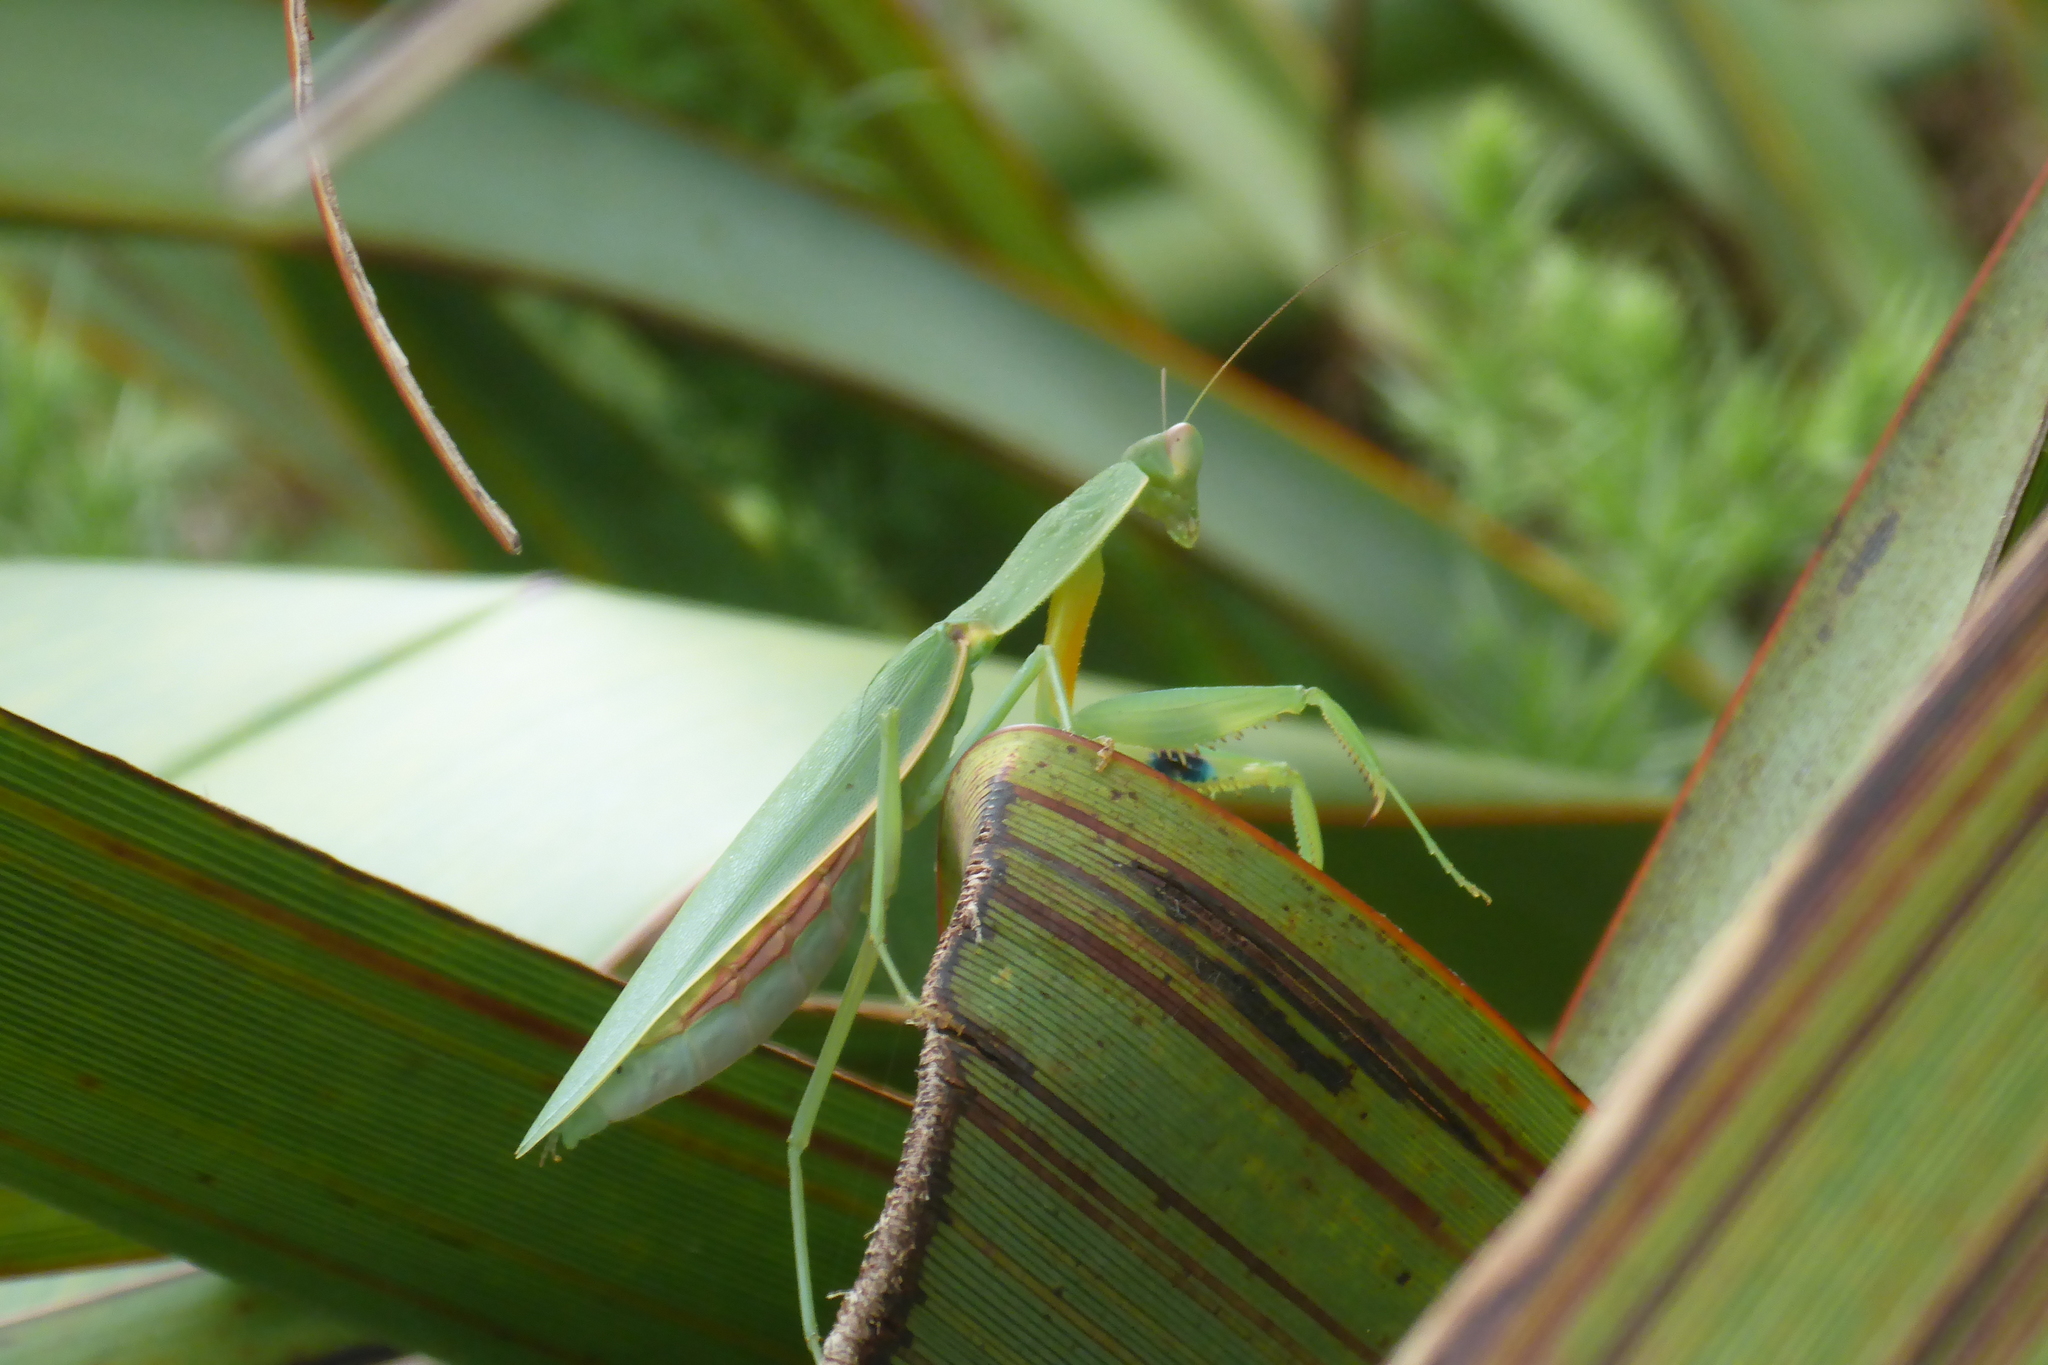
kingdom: Animalia
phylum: Arthropoda
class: Insecta
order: Mantodea
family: Mantidae
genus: Orthodera
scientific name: Orthodera novaezealandiae
